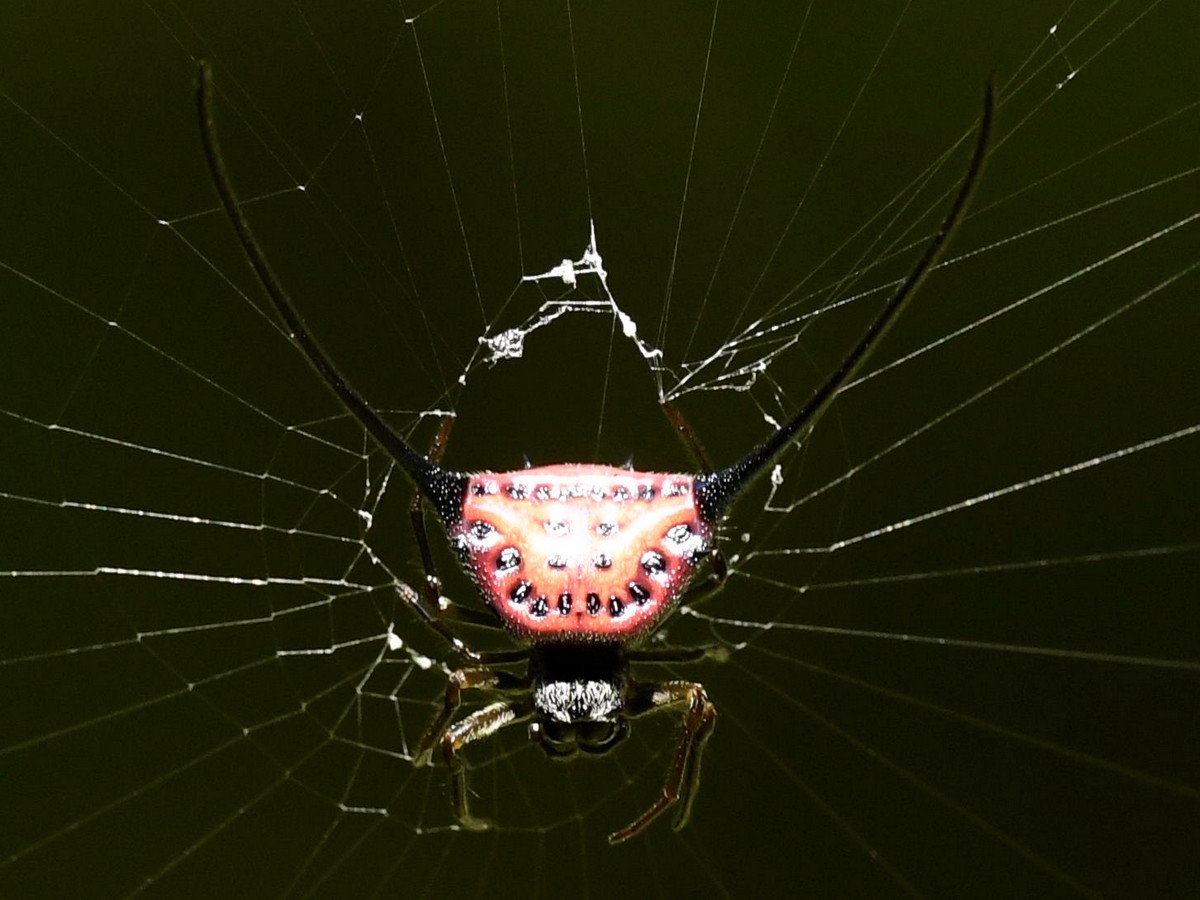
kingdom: Animalia
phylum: Arthropoda
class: Arachnida
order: Araneae
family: Araneidae
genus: Macracantha
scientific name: Macracantha arcuata
